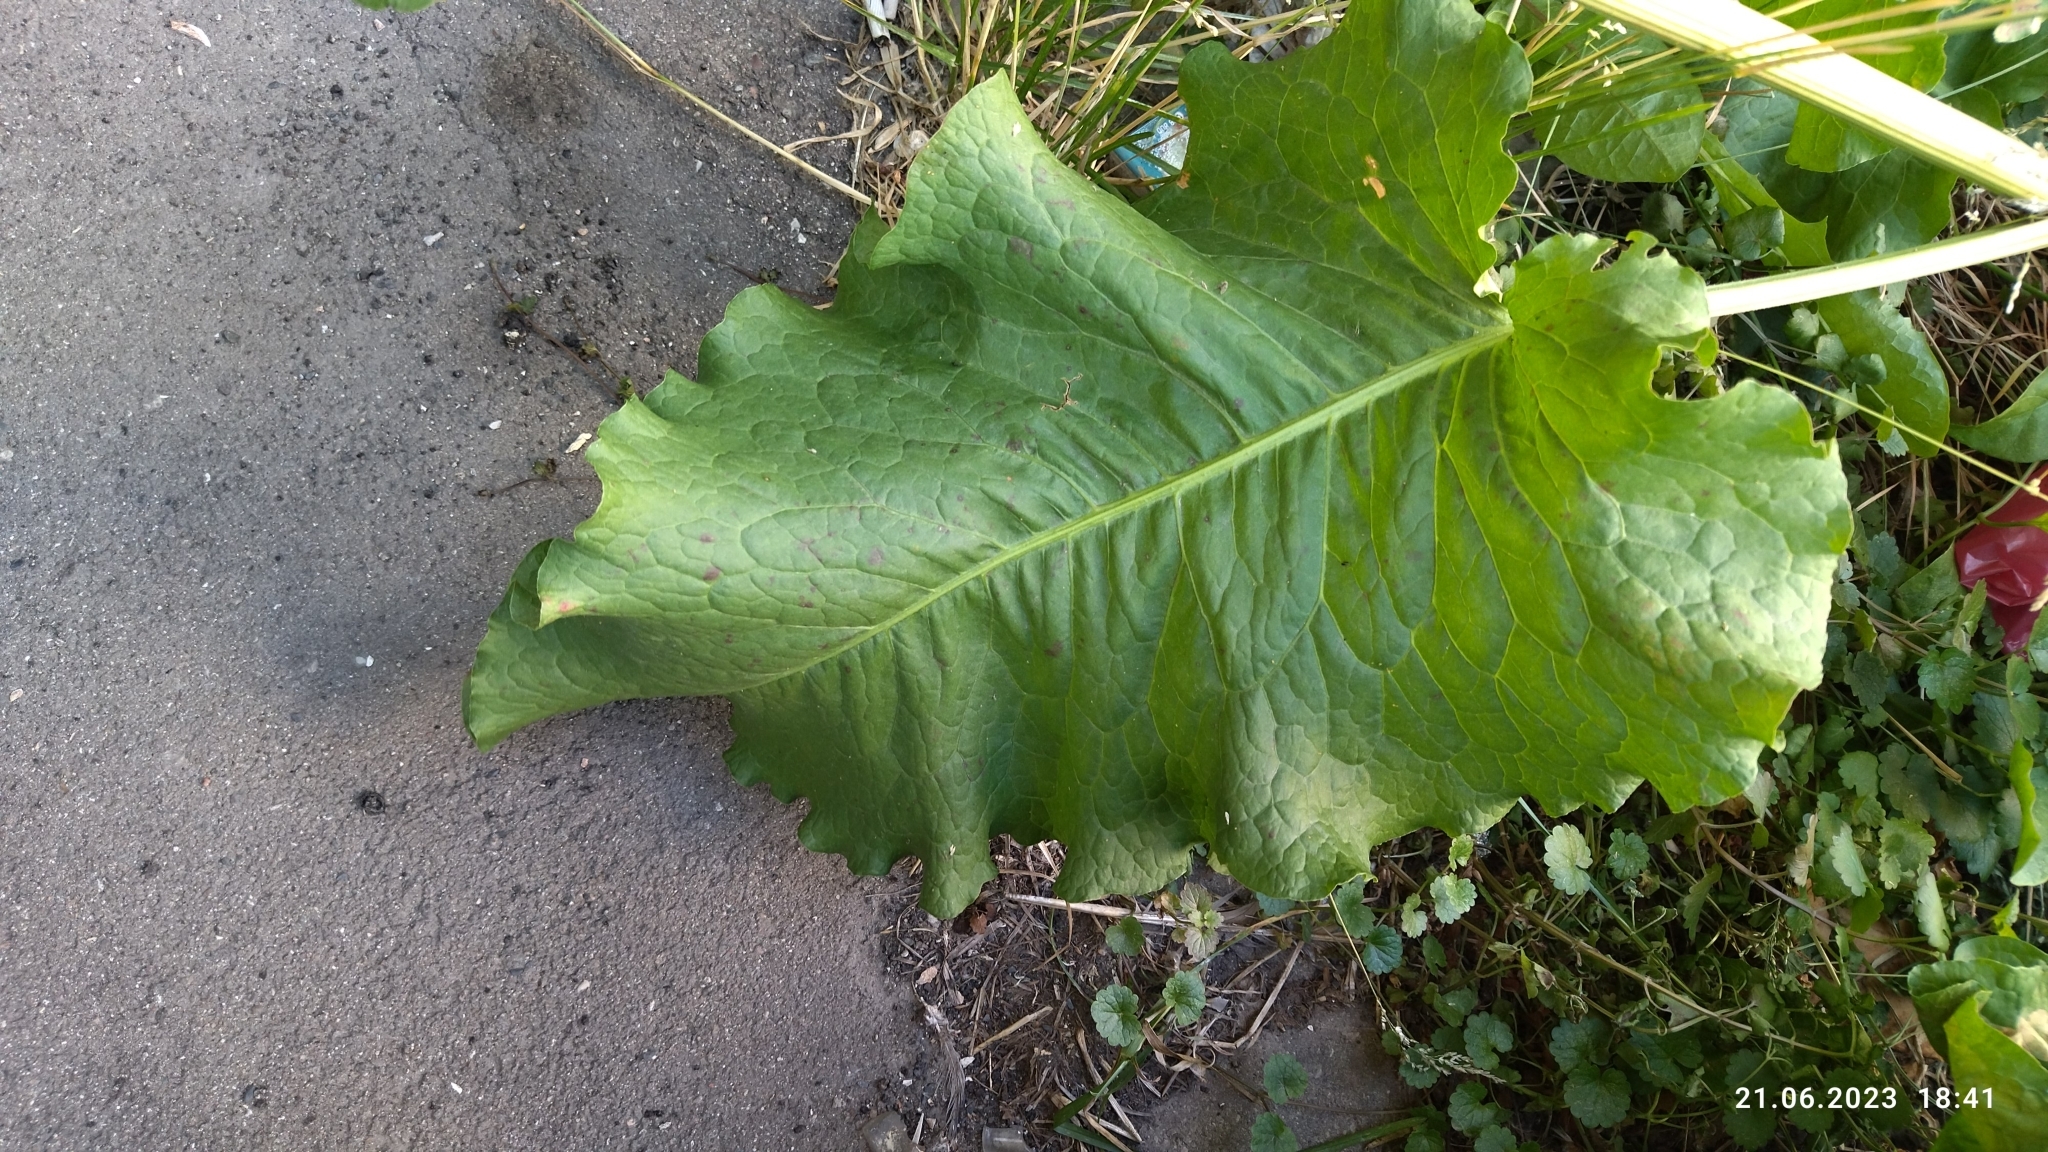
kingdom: Plantae
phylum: Tracheophyta
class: Magnoliopsida
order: Caryophyllales
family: Polygonaceae
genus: Rumex
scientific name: Rumex confertus
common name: Russian dock
